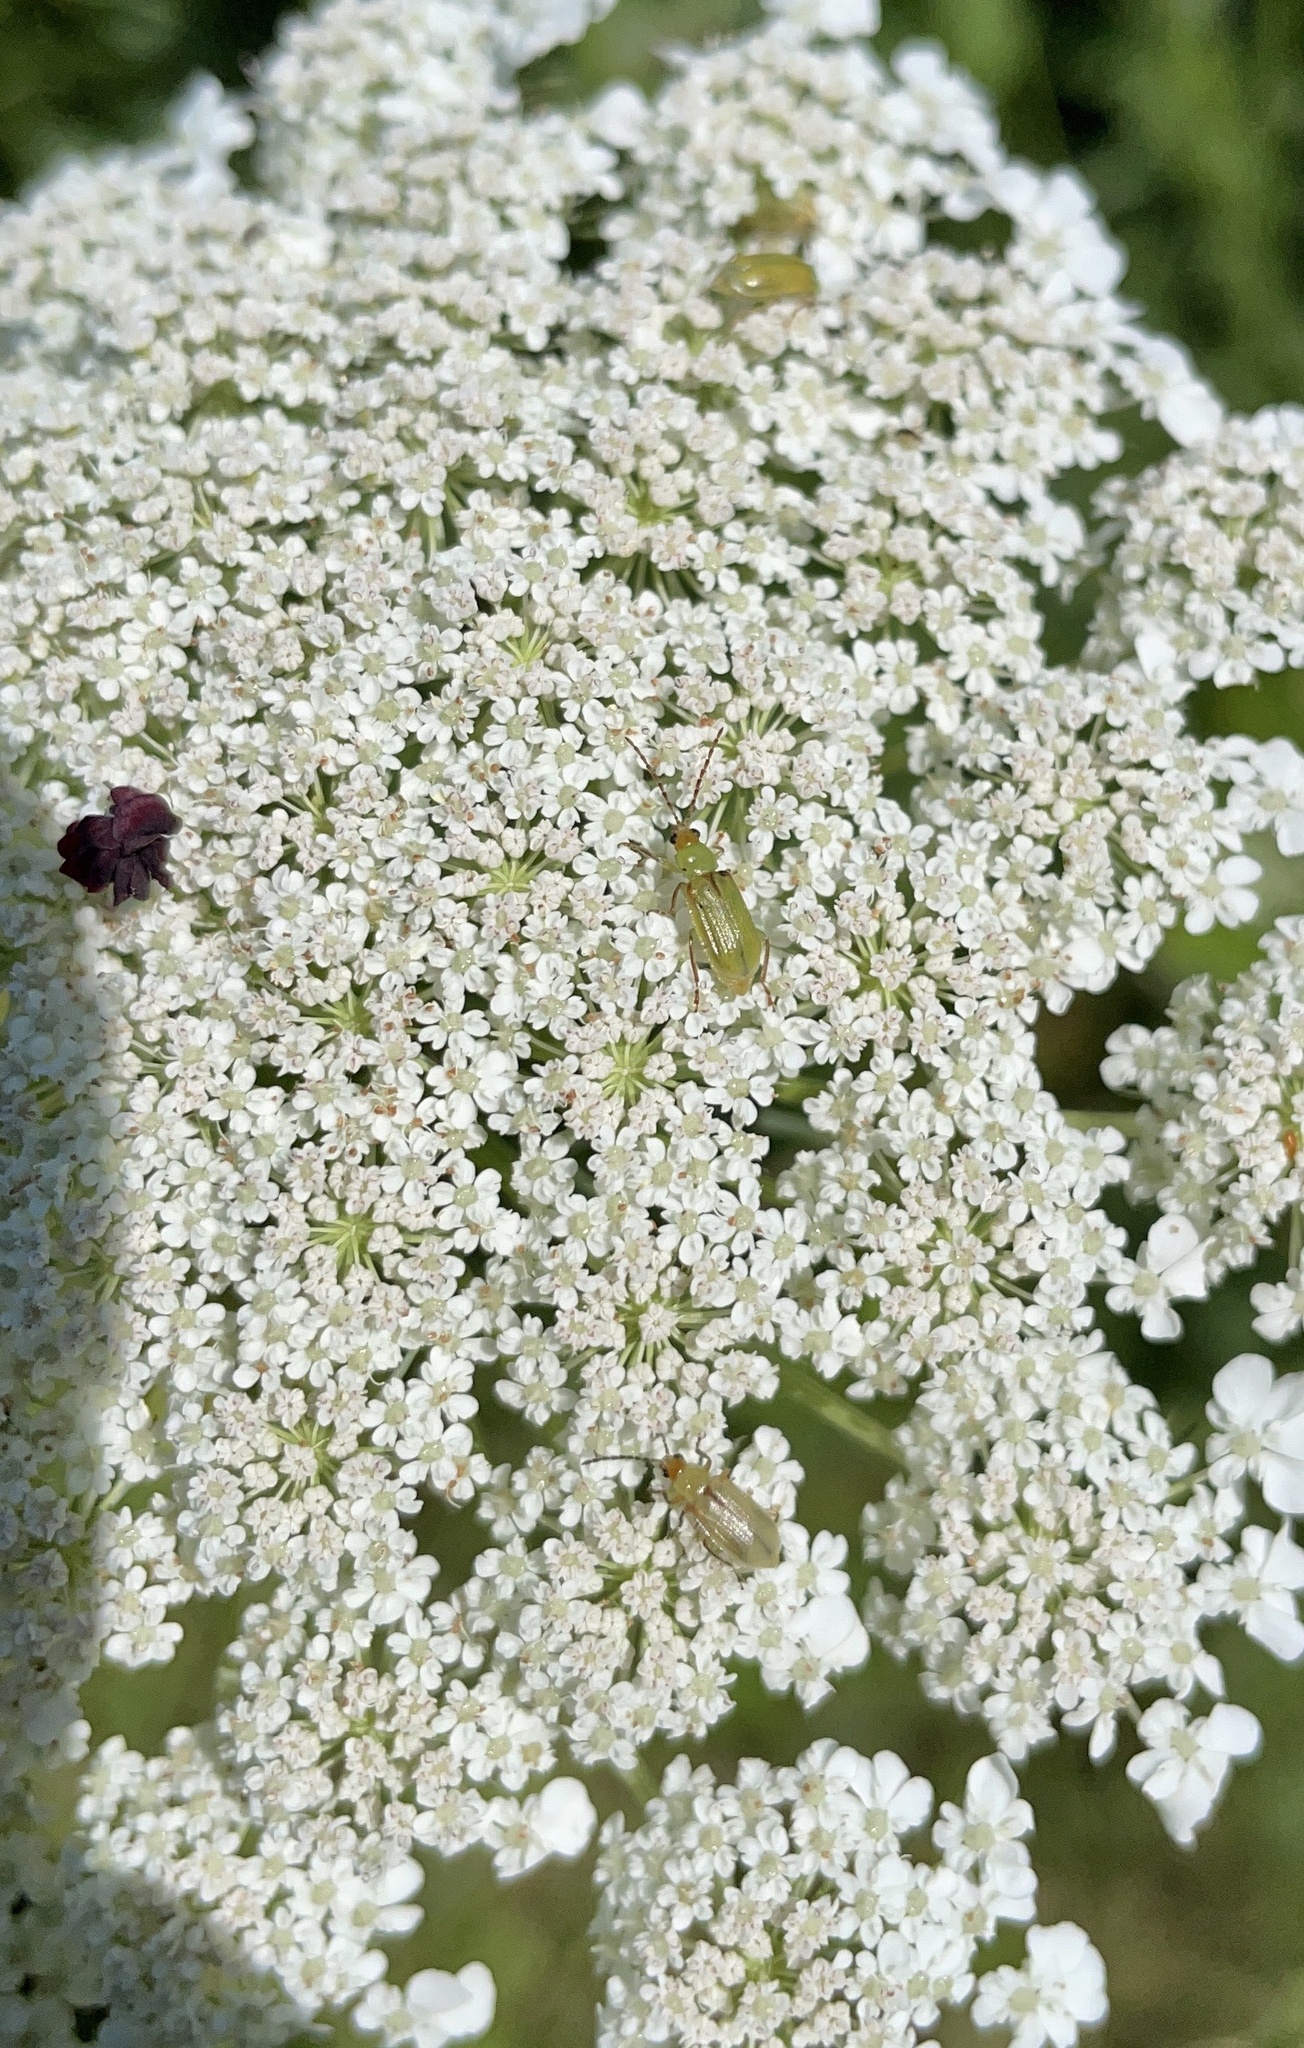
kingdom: Animalia
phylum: Arthropoda
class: Insecta
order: Coleoptera
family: Chrysomelidae
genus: Diabrotica
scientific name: Diabrotica barberi
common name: Northern corn rootworm
